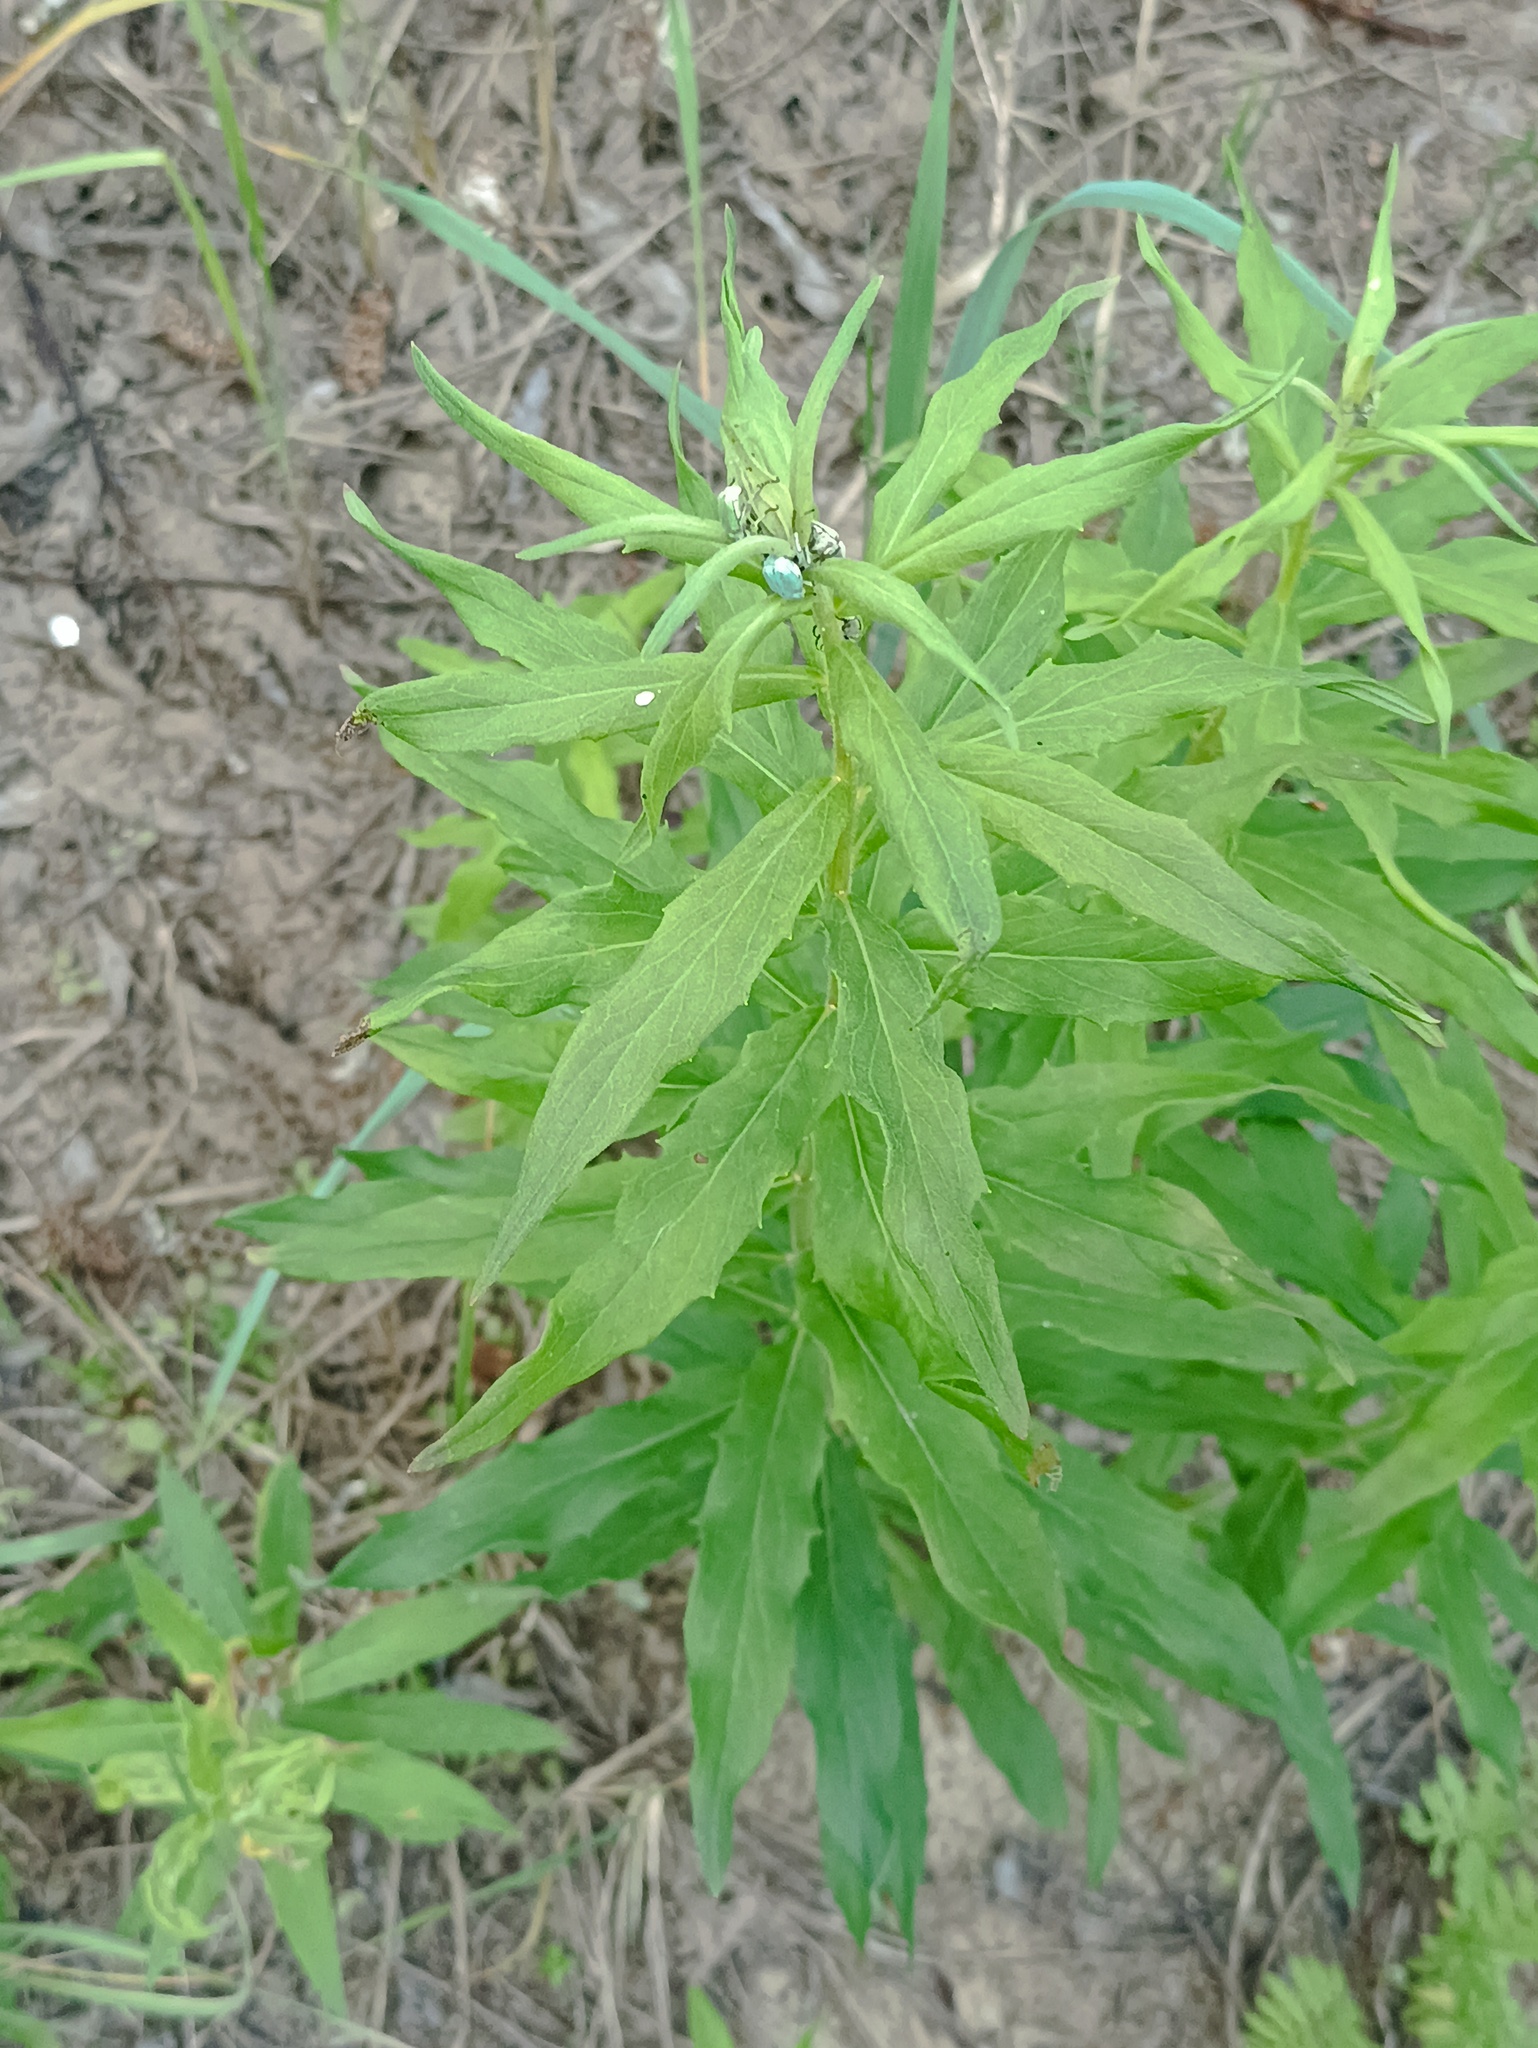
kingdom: Plantae
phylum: Tracheophyta
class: Magnoliopsida
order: Asterales
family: Asteraceae
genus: Hieracium
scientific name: Hieracium umbellatum
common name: Northern hawkweed
